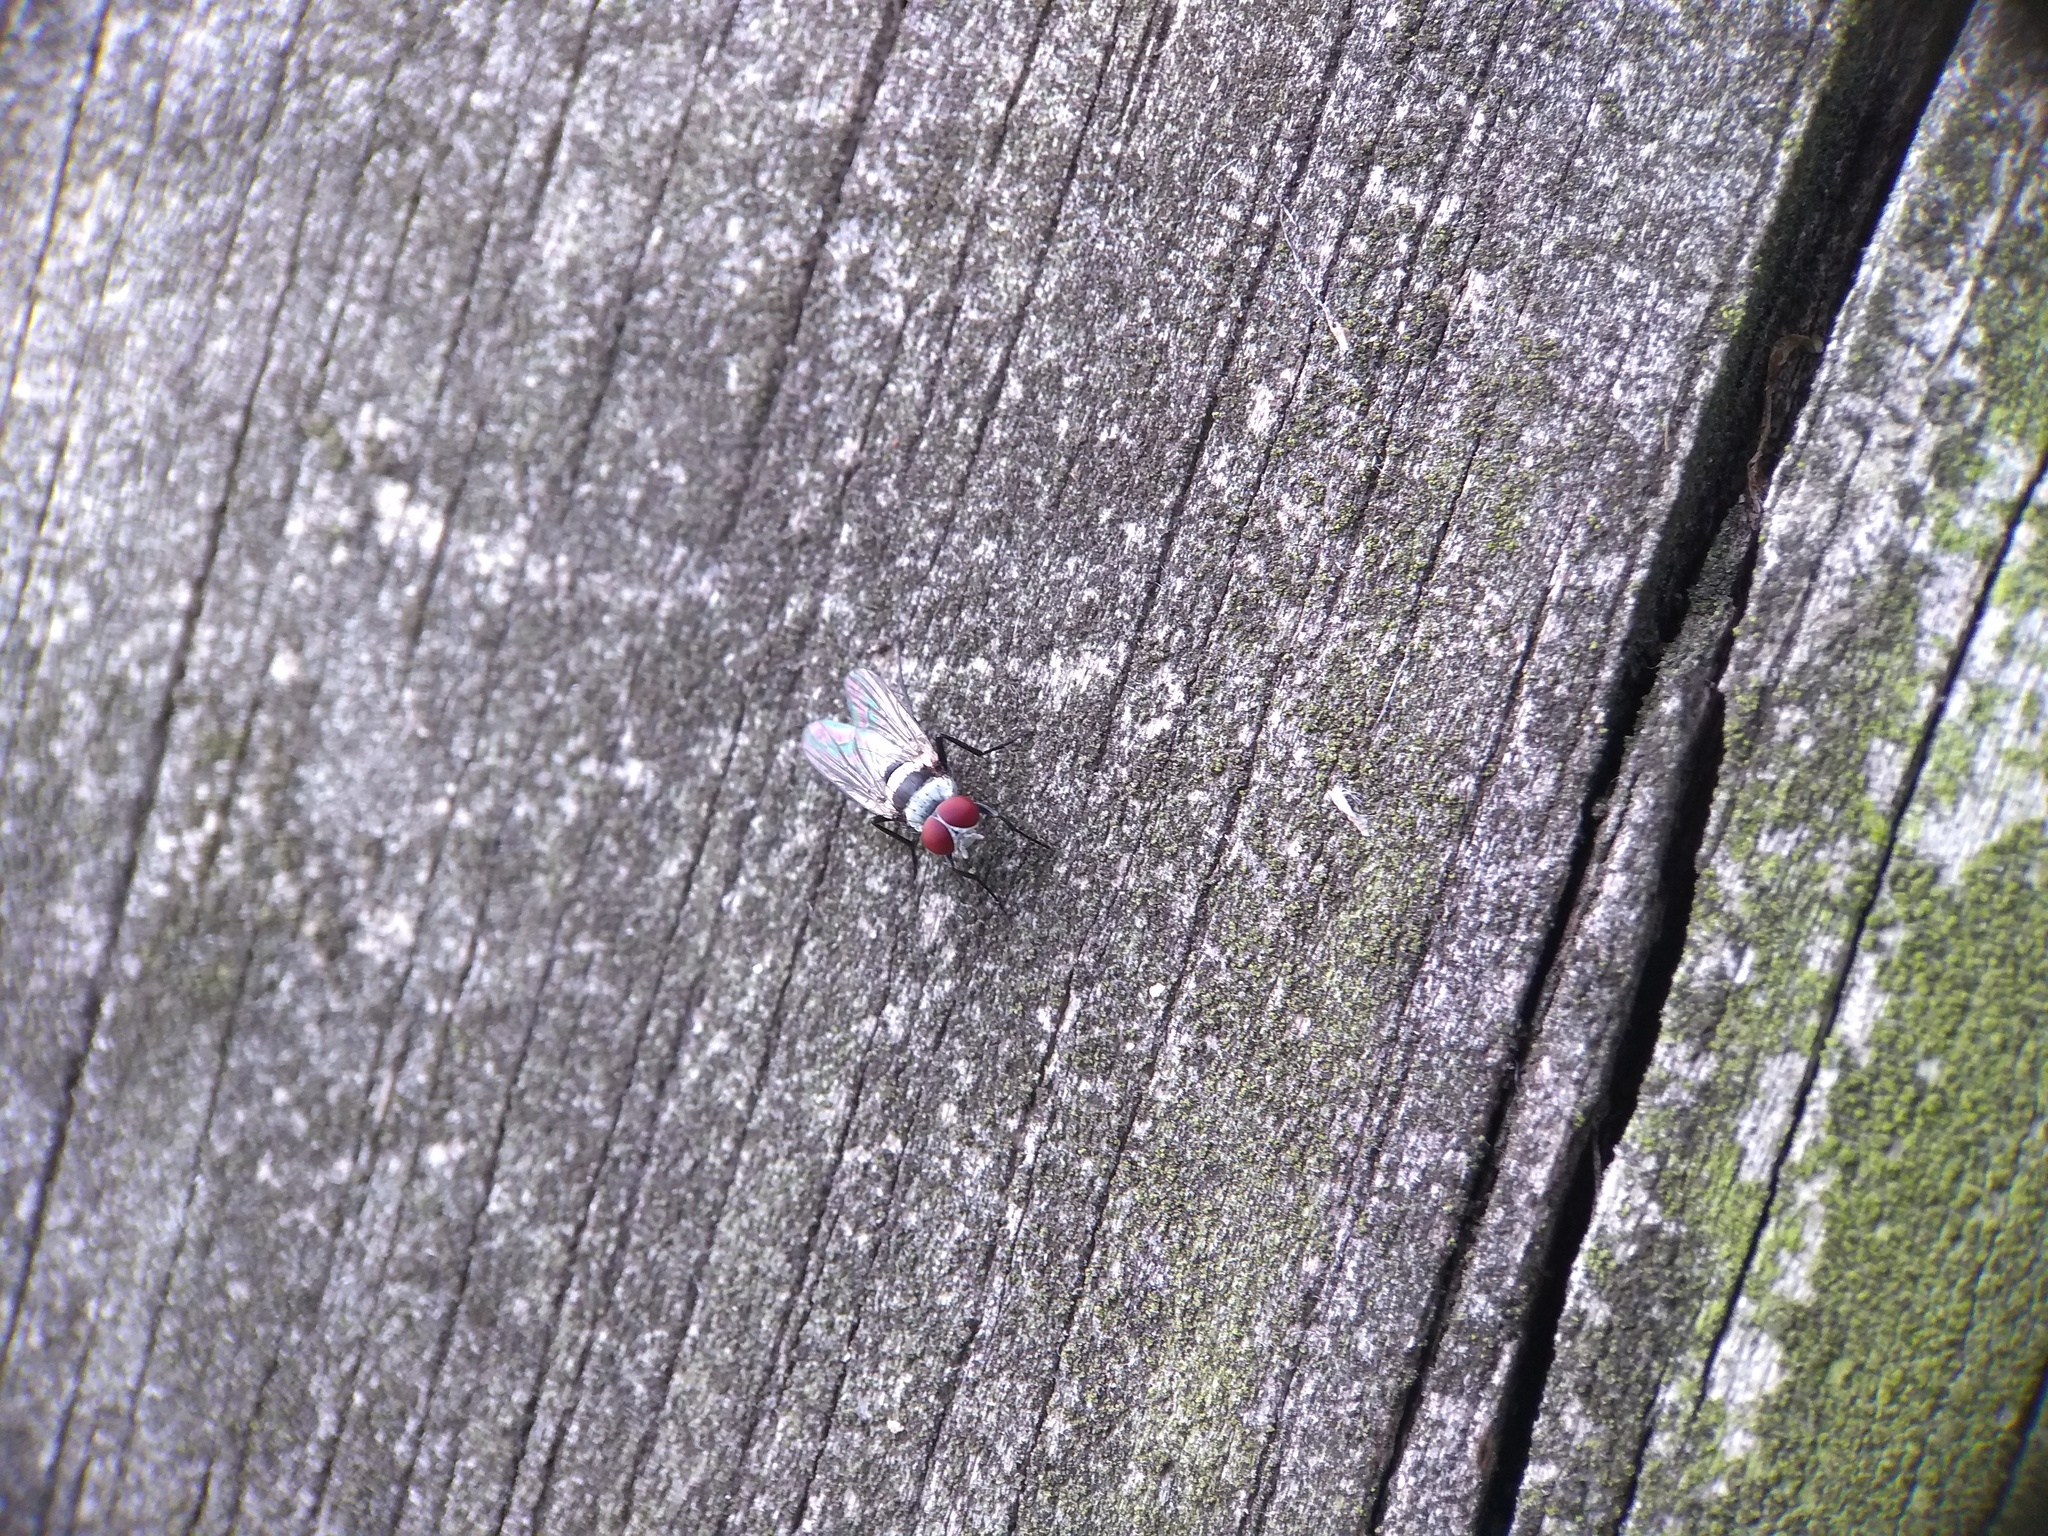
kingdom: Animalia
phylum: Arthropoda
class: Insecta
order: Diptera
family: Anthomyiidae
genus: Anthomyia
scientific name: Anthomyia illocata
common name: Fly
